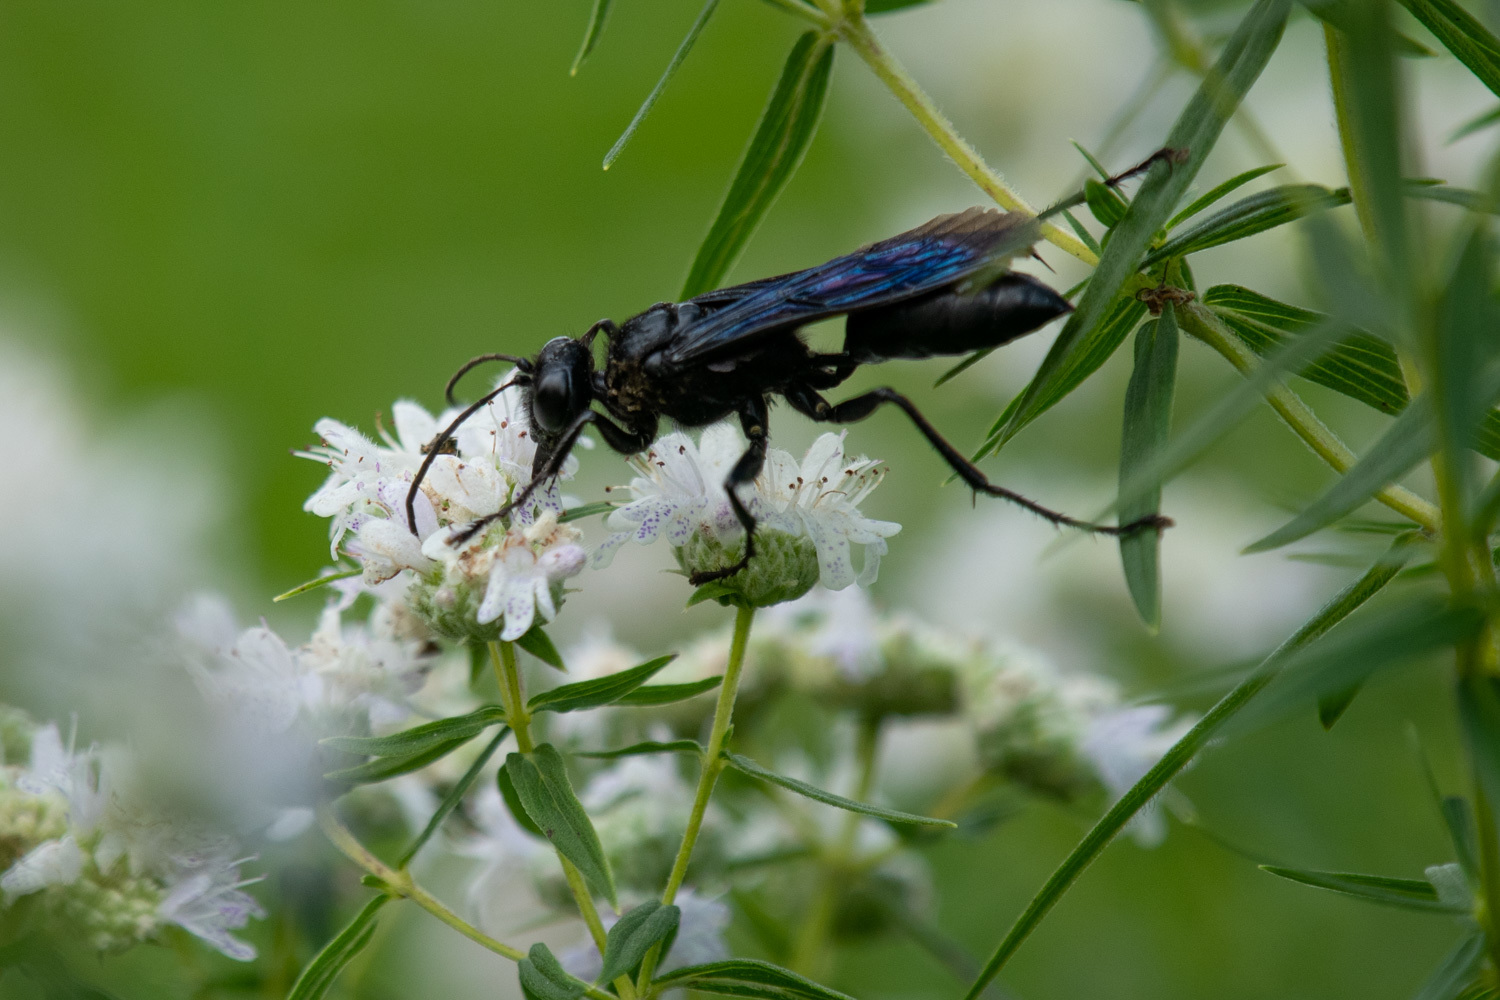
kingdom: Animalia
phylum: Arthropoda
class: Insecta
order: Hymenoptera
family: Sphecidae
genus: Sphex
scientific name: Sphex pensylvanicus
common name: Great black digger wasp
